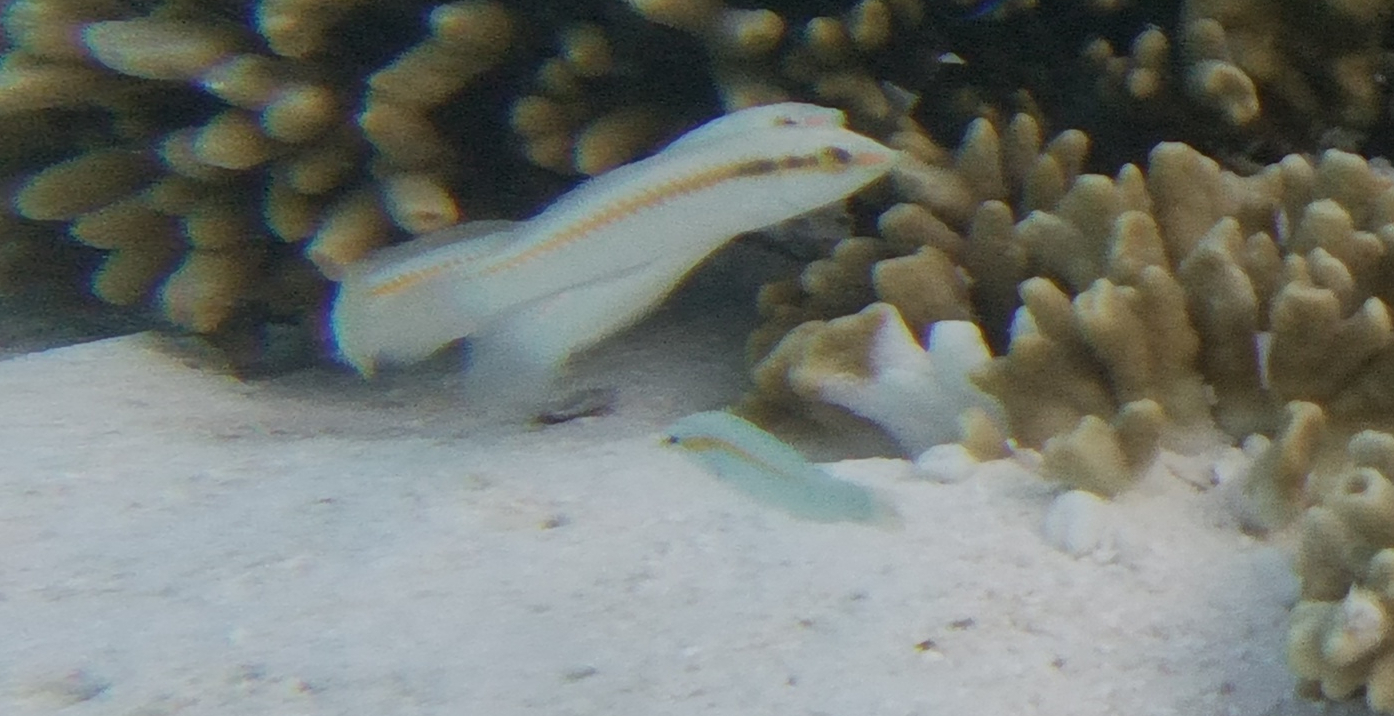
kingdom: Animalia
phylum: Chordata
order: Perciformes
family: Labridae
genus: Halichoeres
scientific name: Halichoeres scapularis
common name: Brownbanded wrasse
